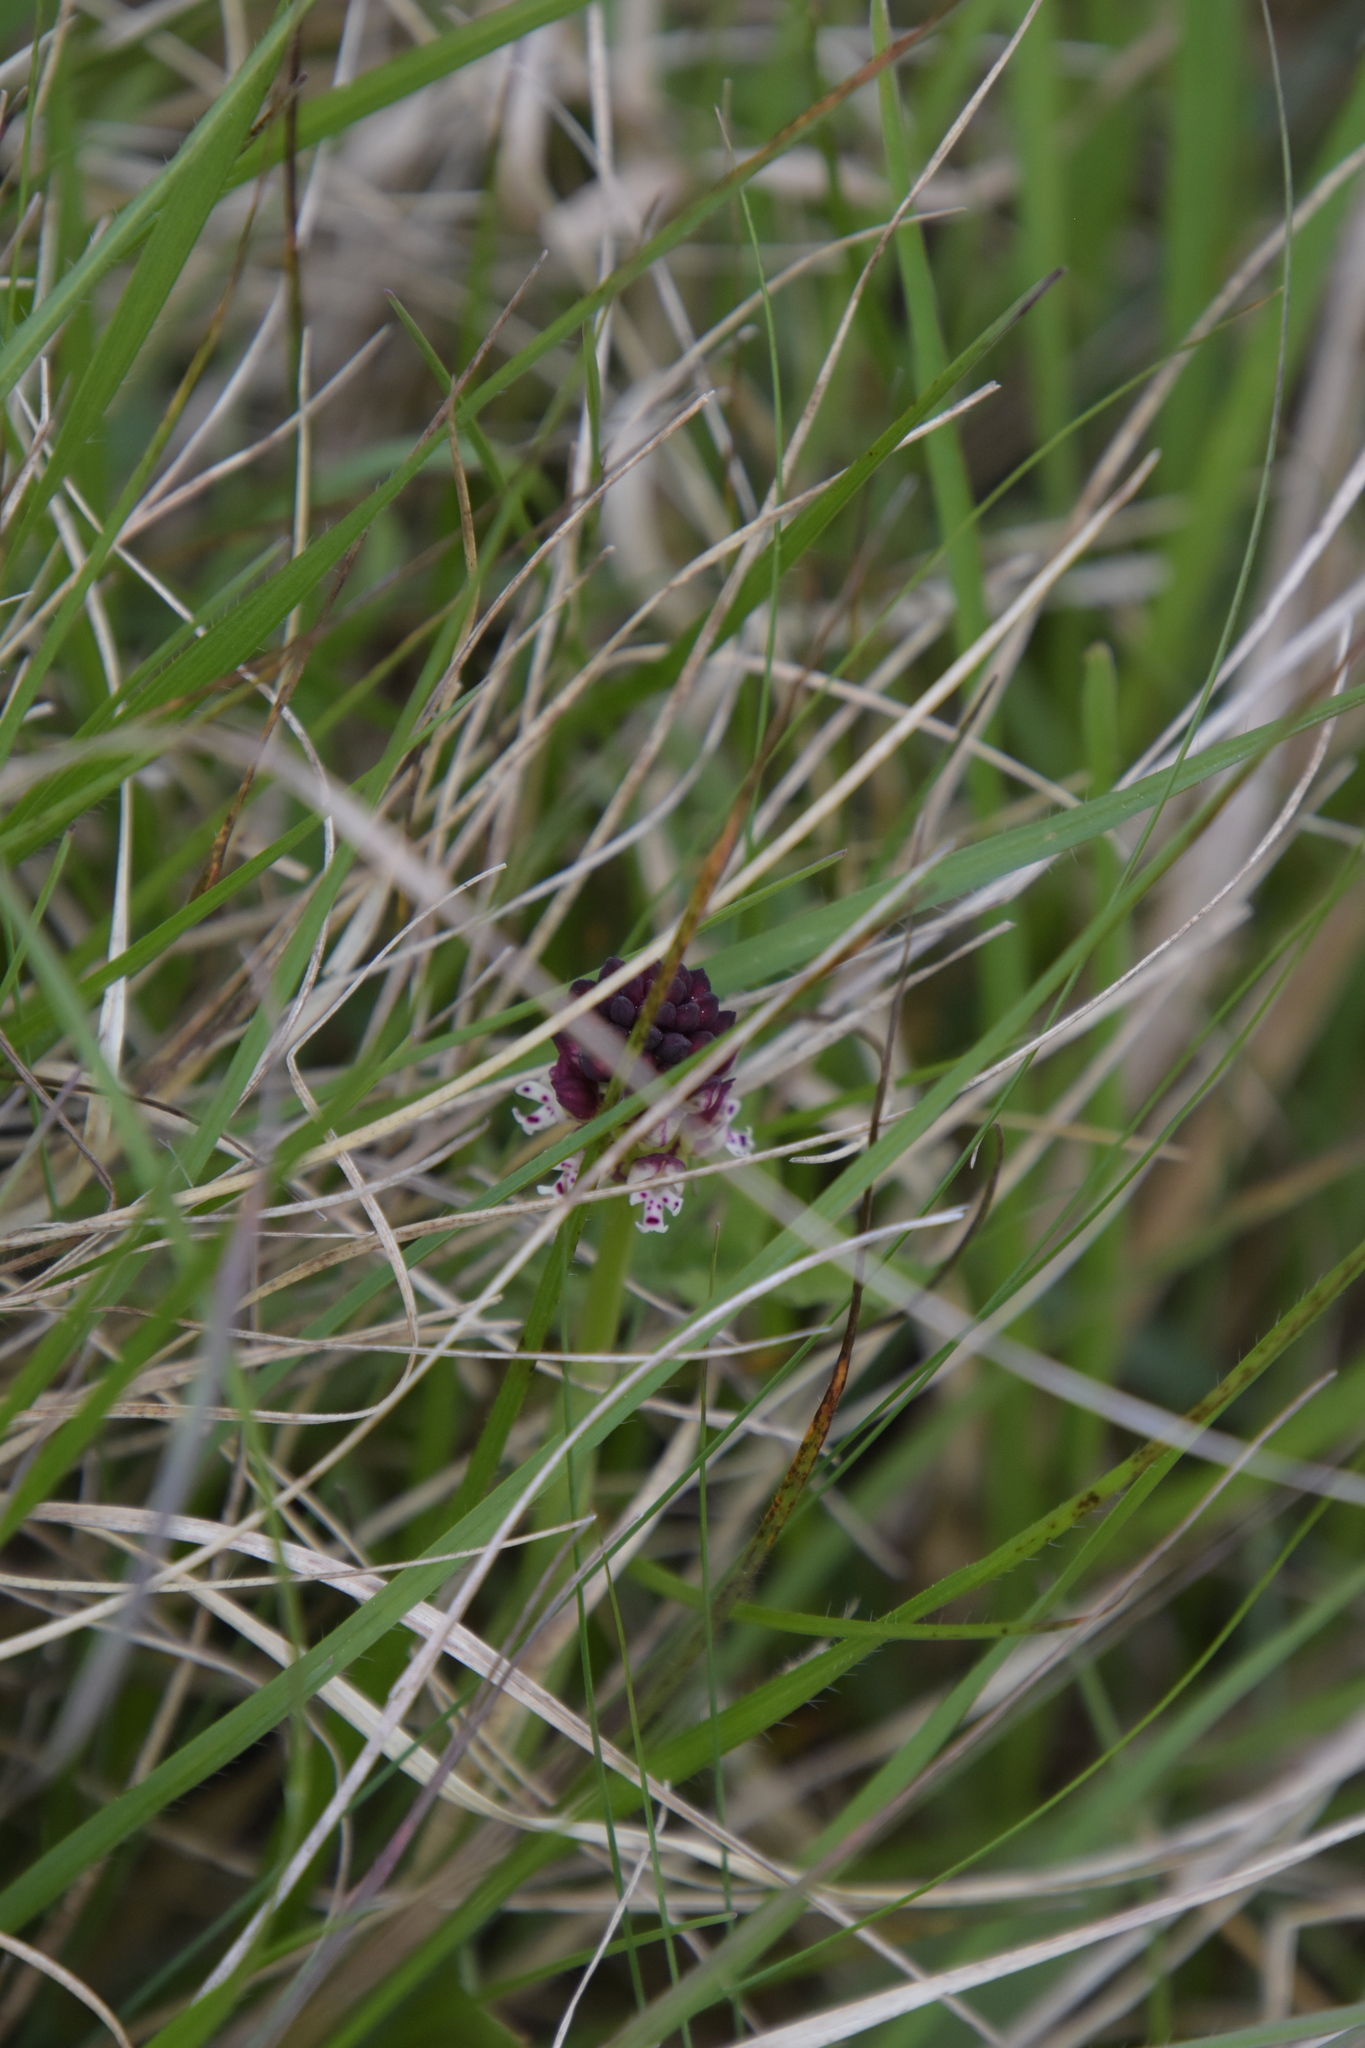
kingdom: Plantae
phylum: Tracheophyta
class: Liliopsida
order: Asparagales
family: Orchidaceae
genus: Neotinea
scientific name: Neotinea ustulata
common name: Burnt orchid
